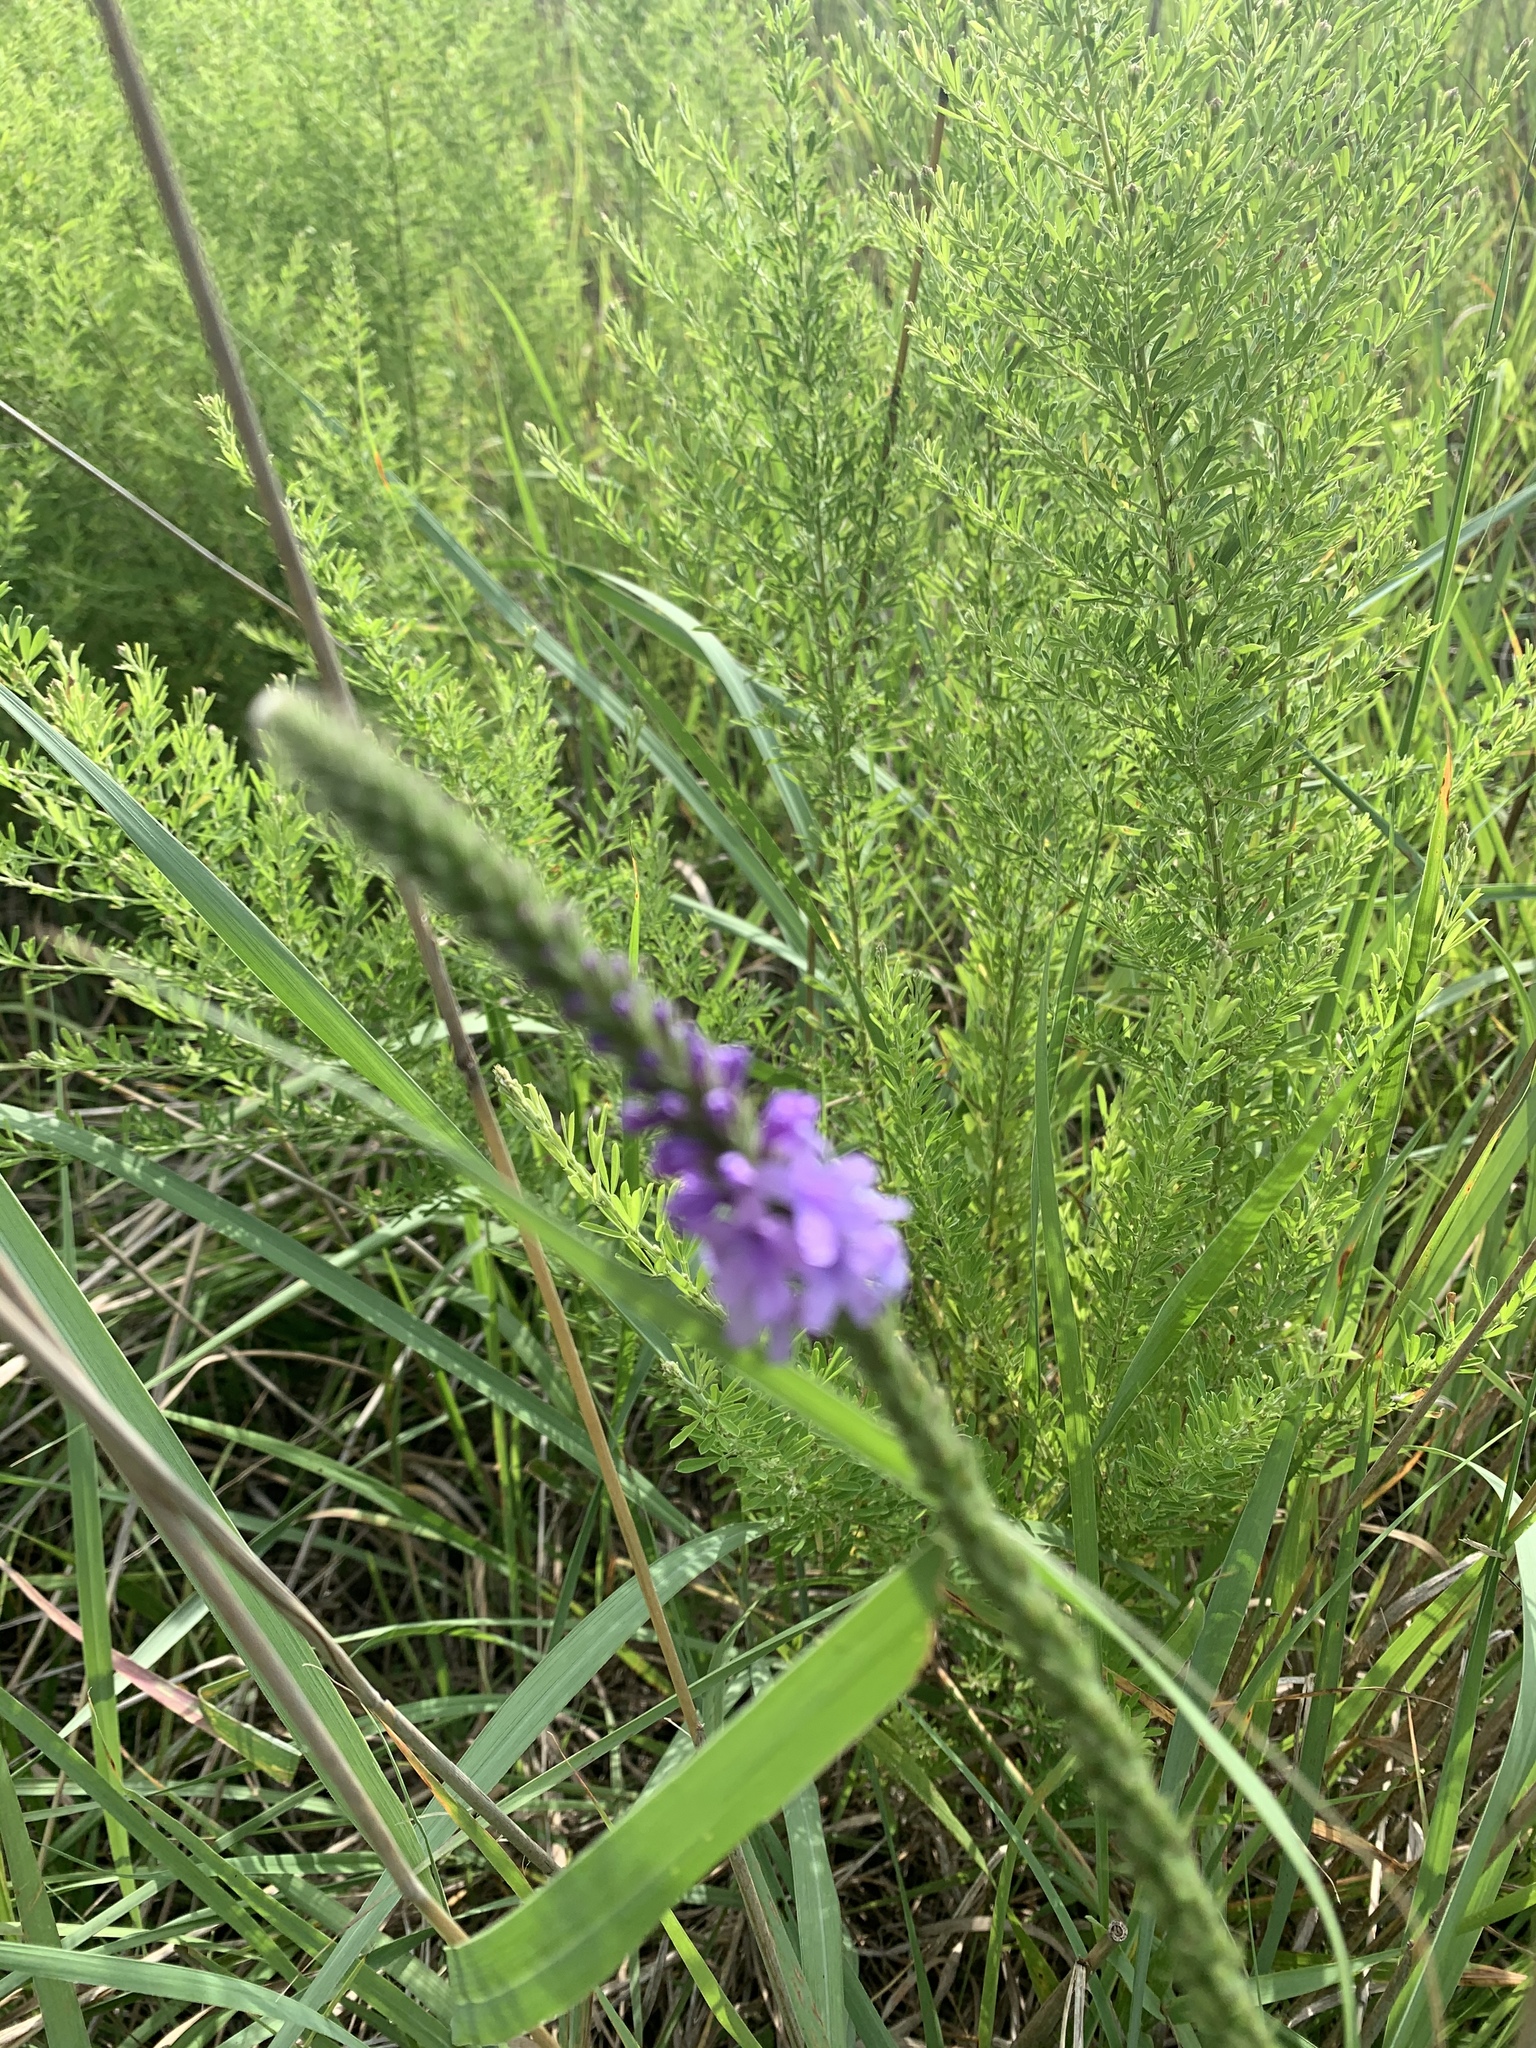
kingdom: Plantae
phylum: Tracheophyta
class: Magnoliopsida
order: Lamiales
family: Verbenaceae
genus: Verbena
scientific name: Verbena stricta
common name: Hoary vervain
